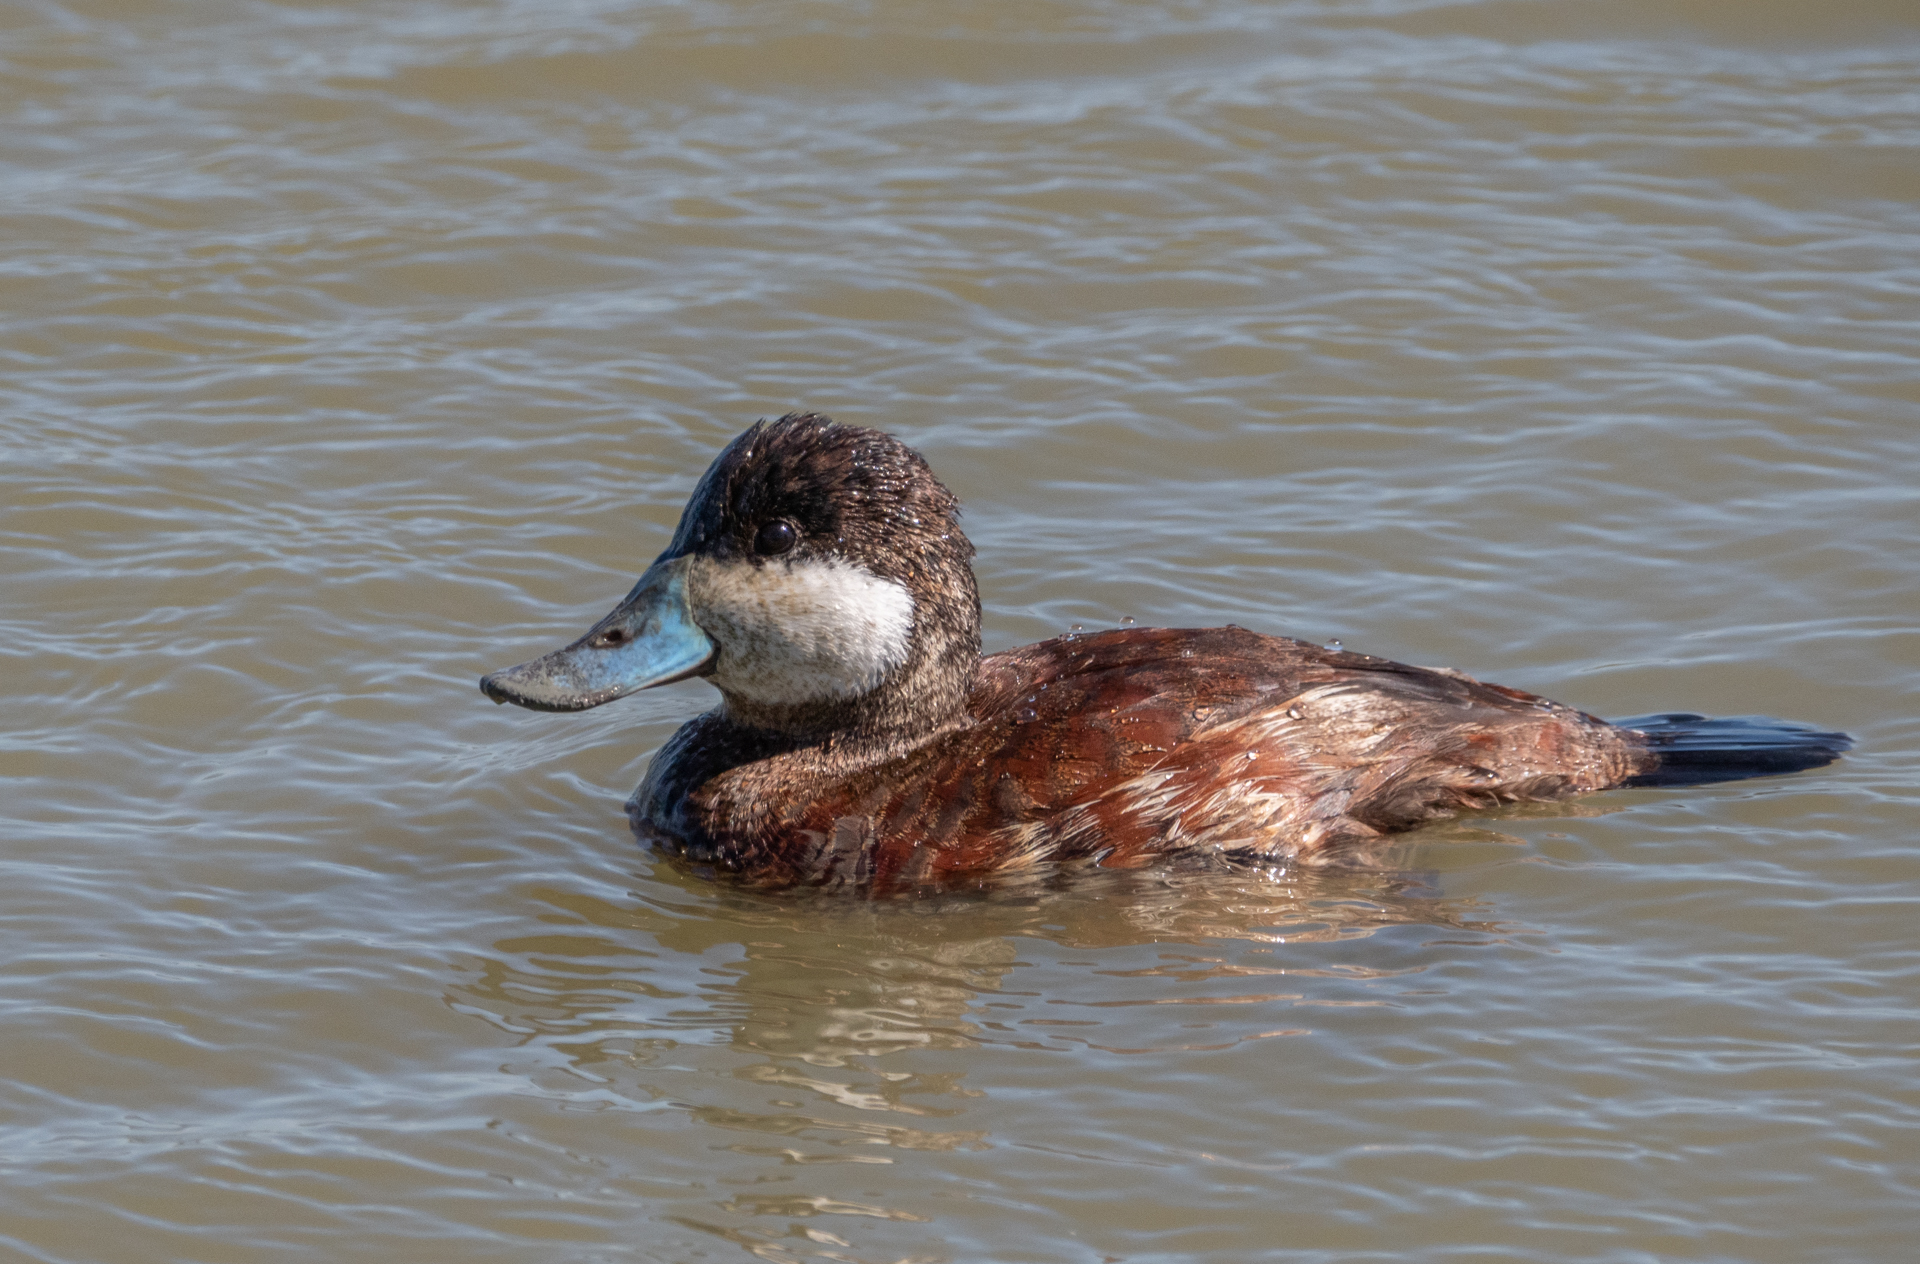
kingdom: Animalia
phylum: Chordata
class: Aves
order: Anseriformes
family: Anatidae
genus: Oxyura
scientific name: Oxyura jamaicensis
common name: Ruddy duck
